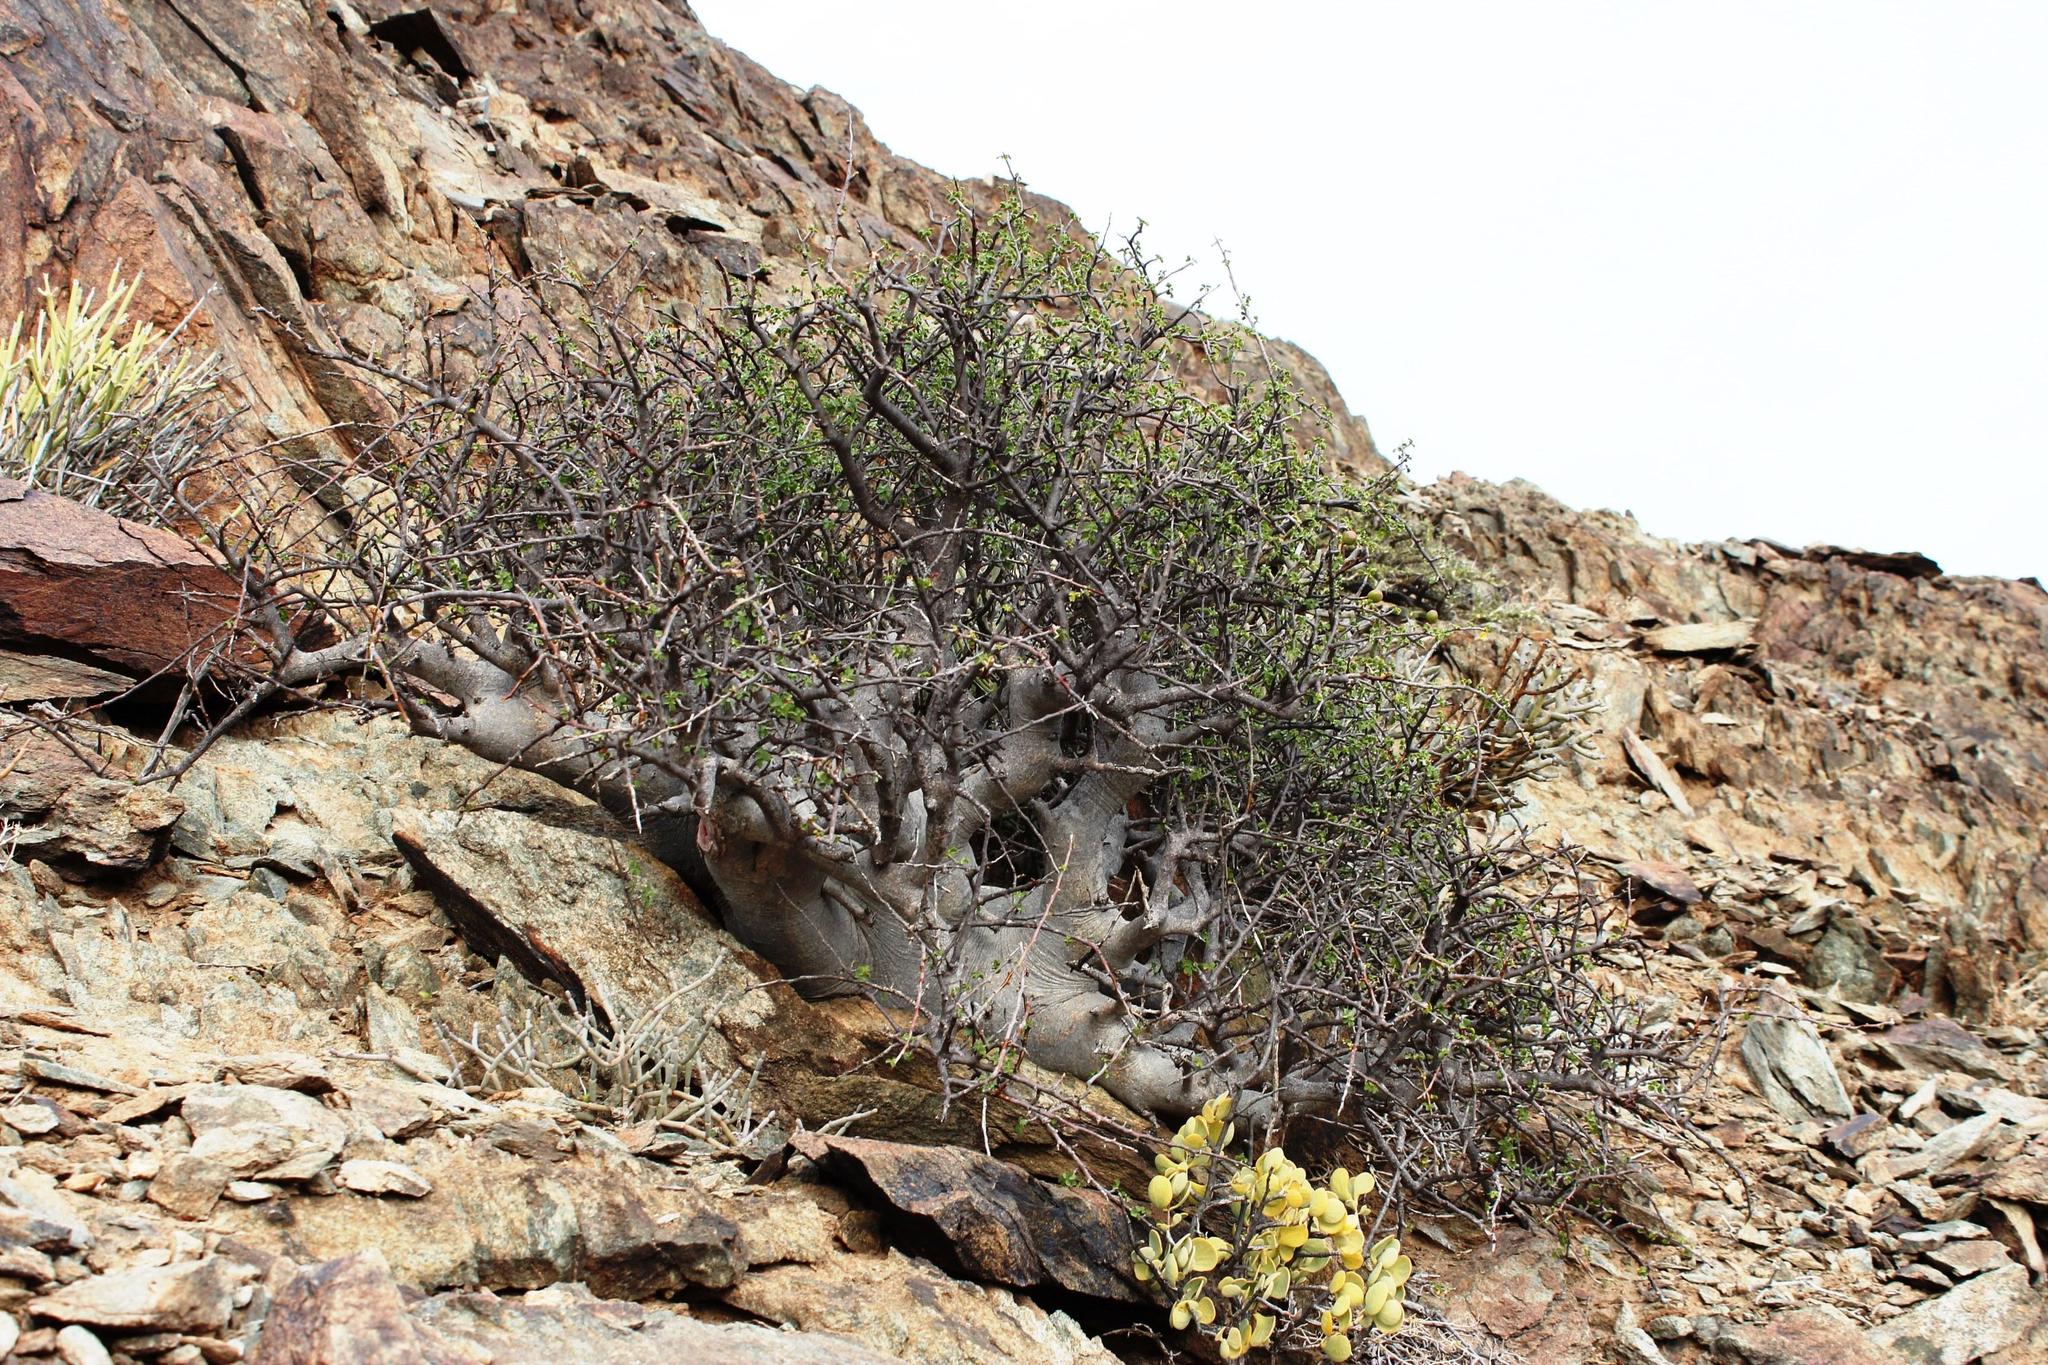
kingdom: Plantae
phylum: Tracheophyta
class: Magnoliopsida
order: Sapindales
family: Burseraceae
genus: Commiphora
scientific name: Commiphora capensis
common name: Namaqua commiphora
